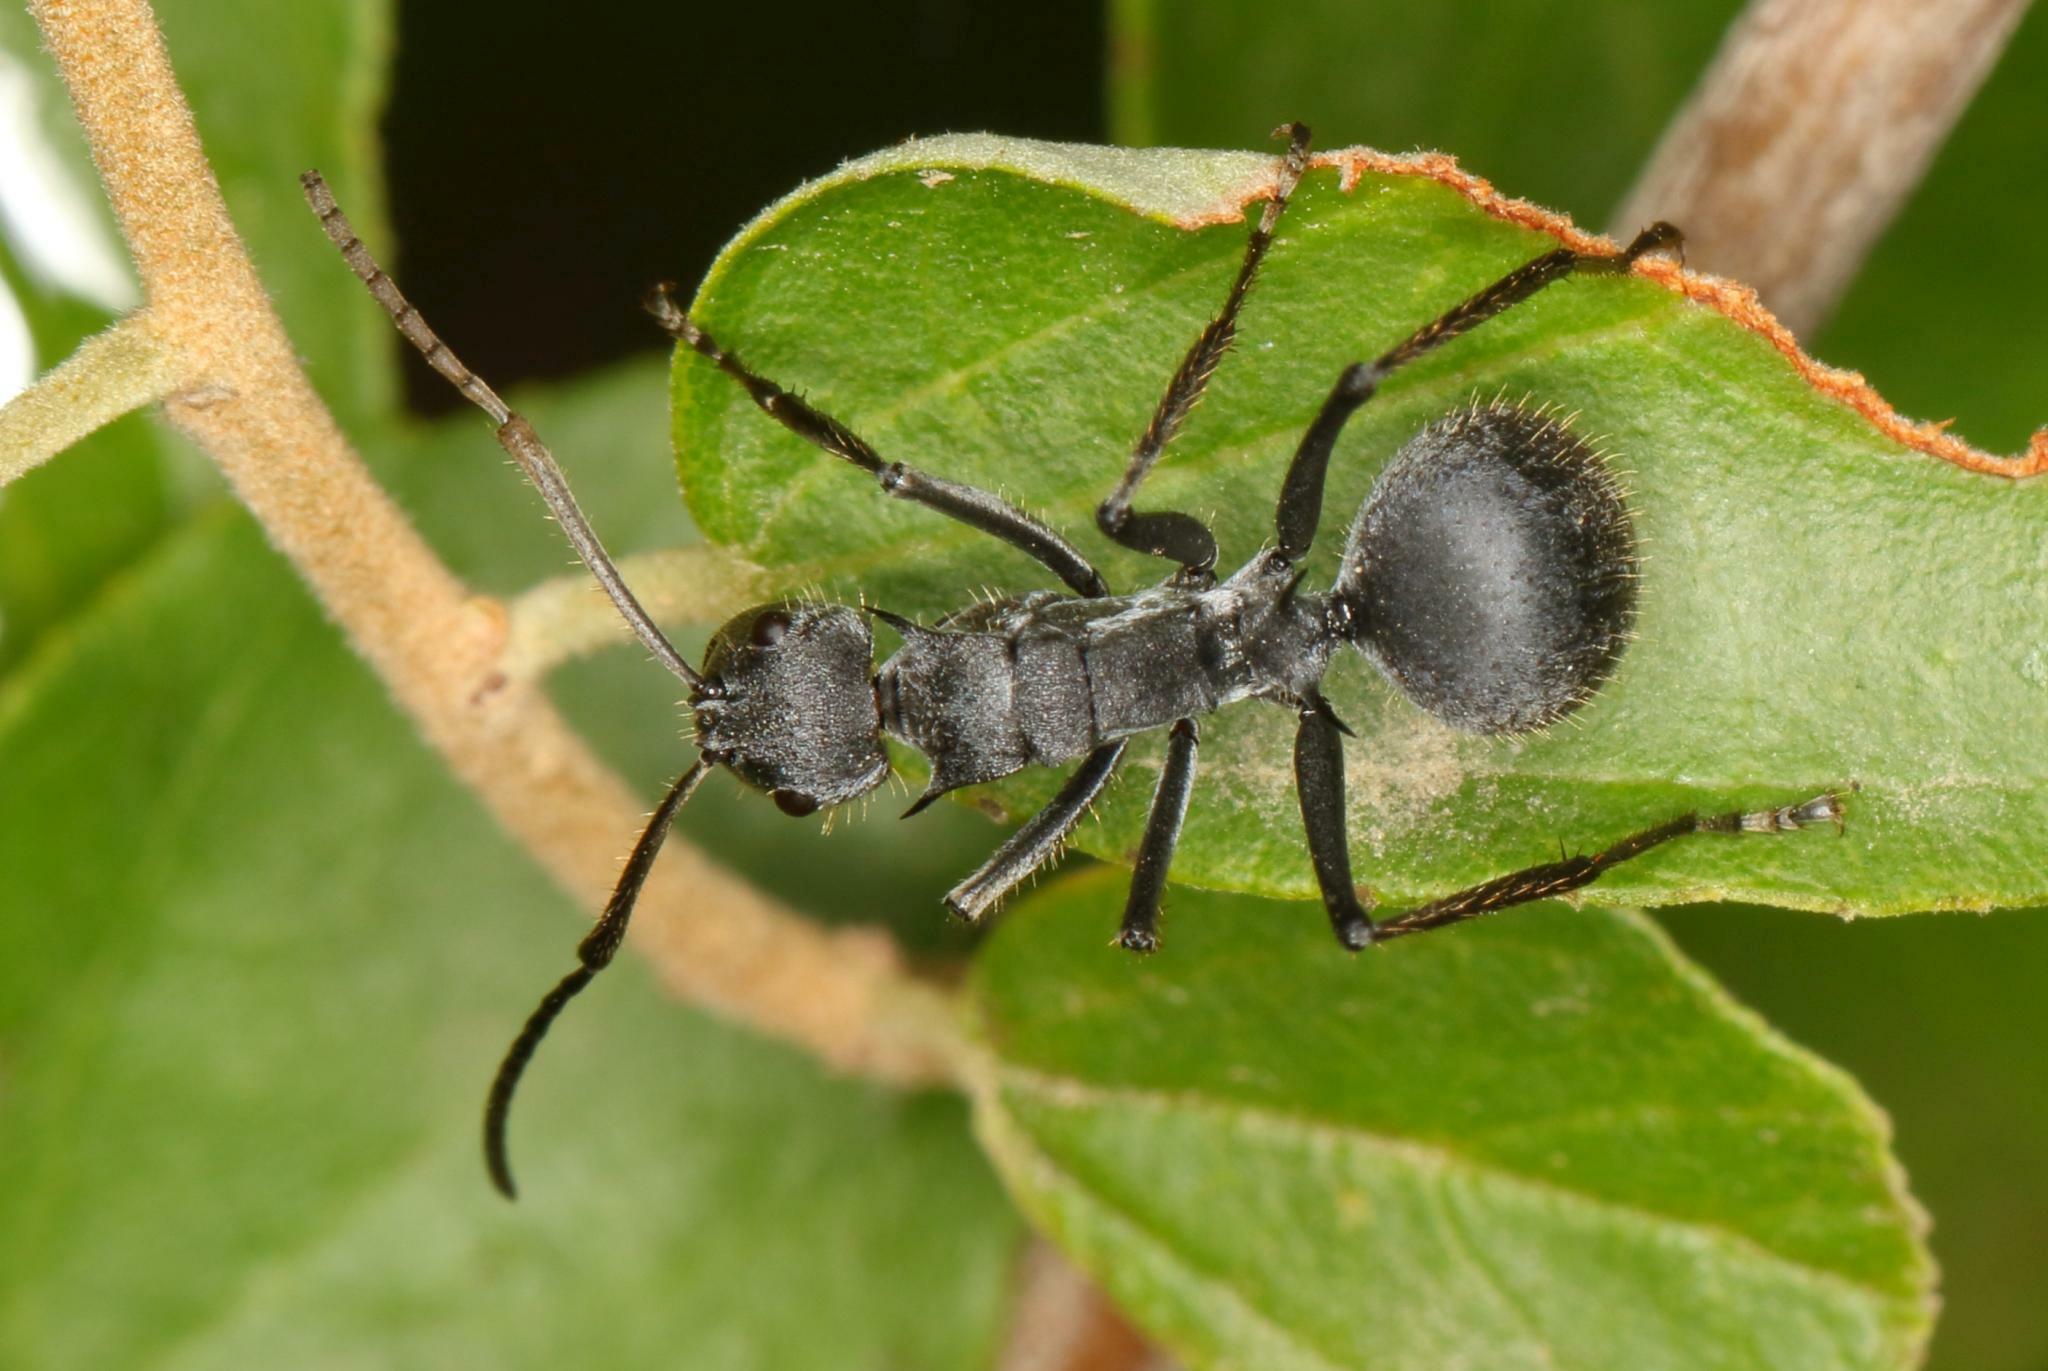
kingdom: Animalia
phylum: Arthropoda
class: Insecta
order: Hymenoptera
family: Formicidae
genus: Polyrhachis
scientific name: Polyrhachis schistacea
